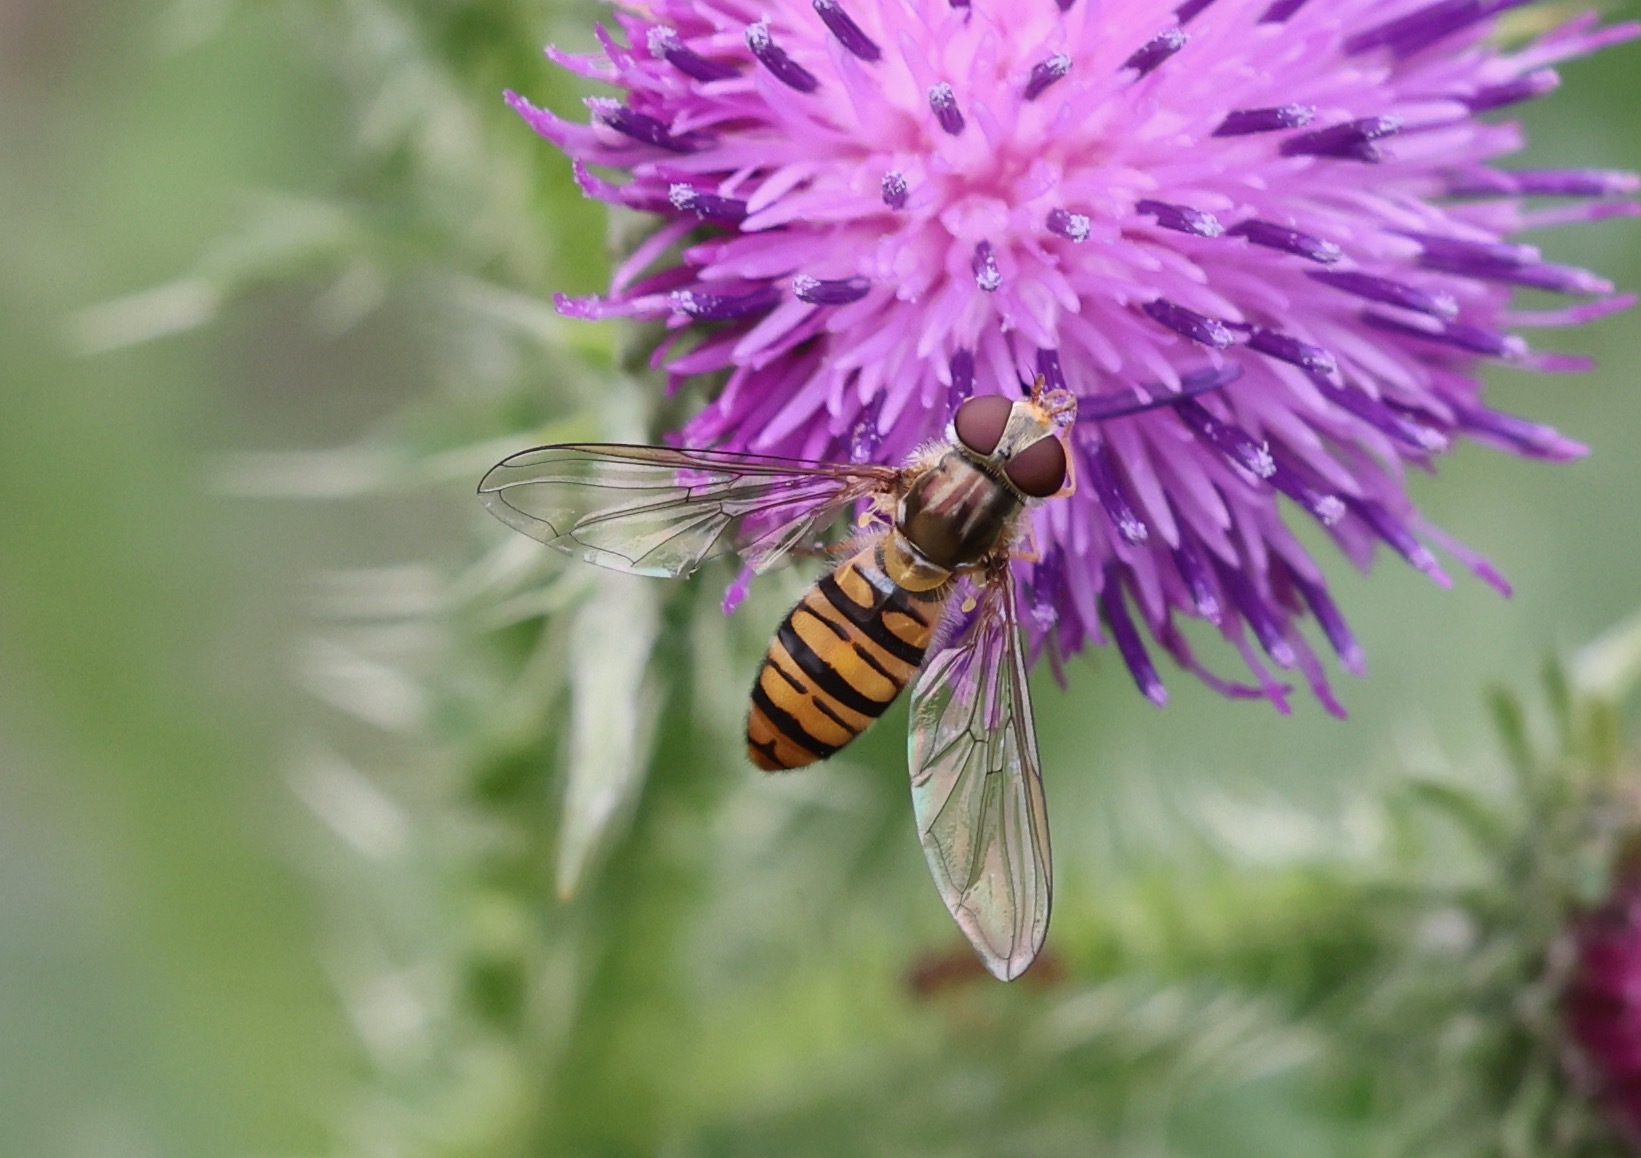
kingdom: Animalia
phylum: Arthropoda
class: Insecta
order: Diptera
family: Syrphidae
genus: Episyrphus
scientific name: Episyrphus balteatus
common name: Marmalade hoverfly
